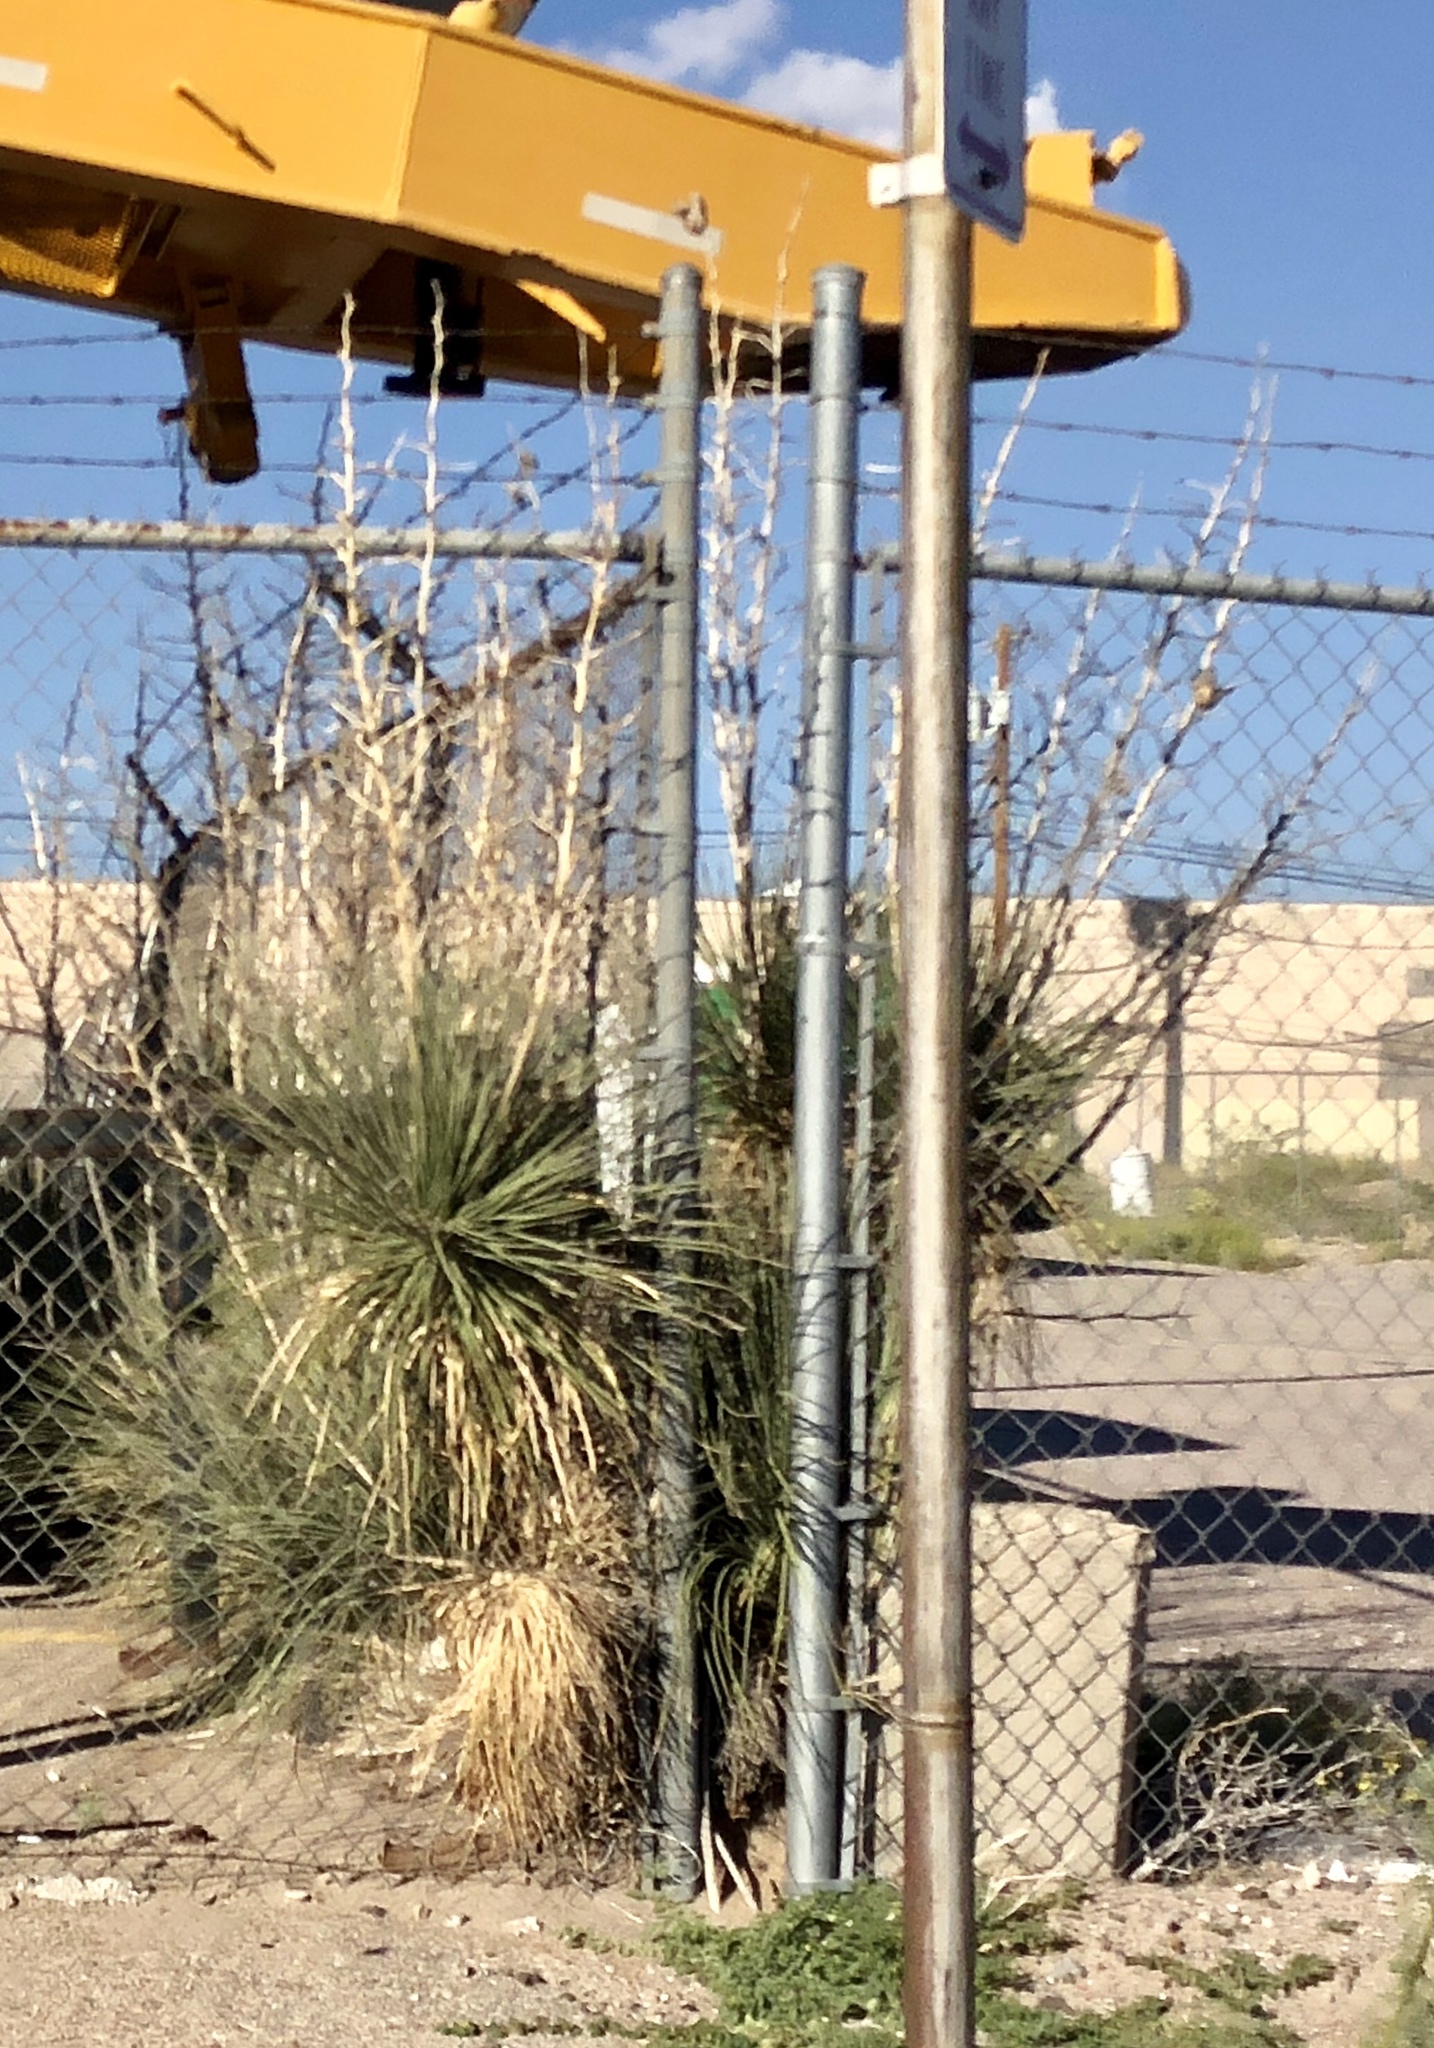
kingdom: Plantae
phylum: Tracheophyta
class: Liliopsida
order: Asparagales
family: Asparagaceae
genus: Yucca
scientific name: Yucca elata
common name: Palmella
